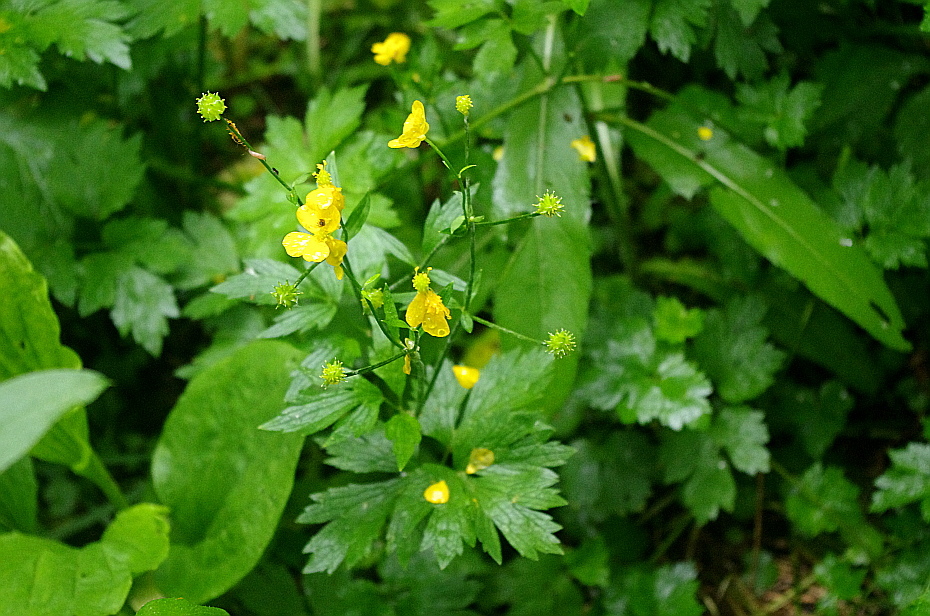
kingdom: Plantae
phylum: Tracheophyta
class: Magnoliopsida
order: Ranunculales
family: Ranunculaceae
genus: Ranunculus
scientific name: Ranunculus repens
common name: Creeping buttercup
